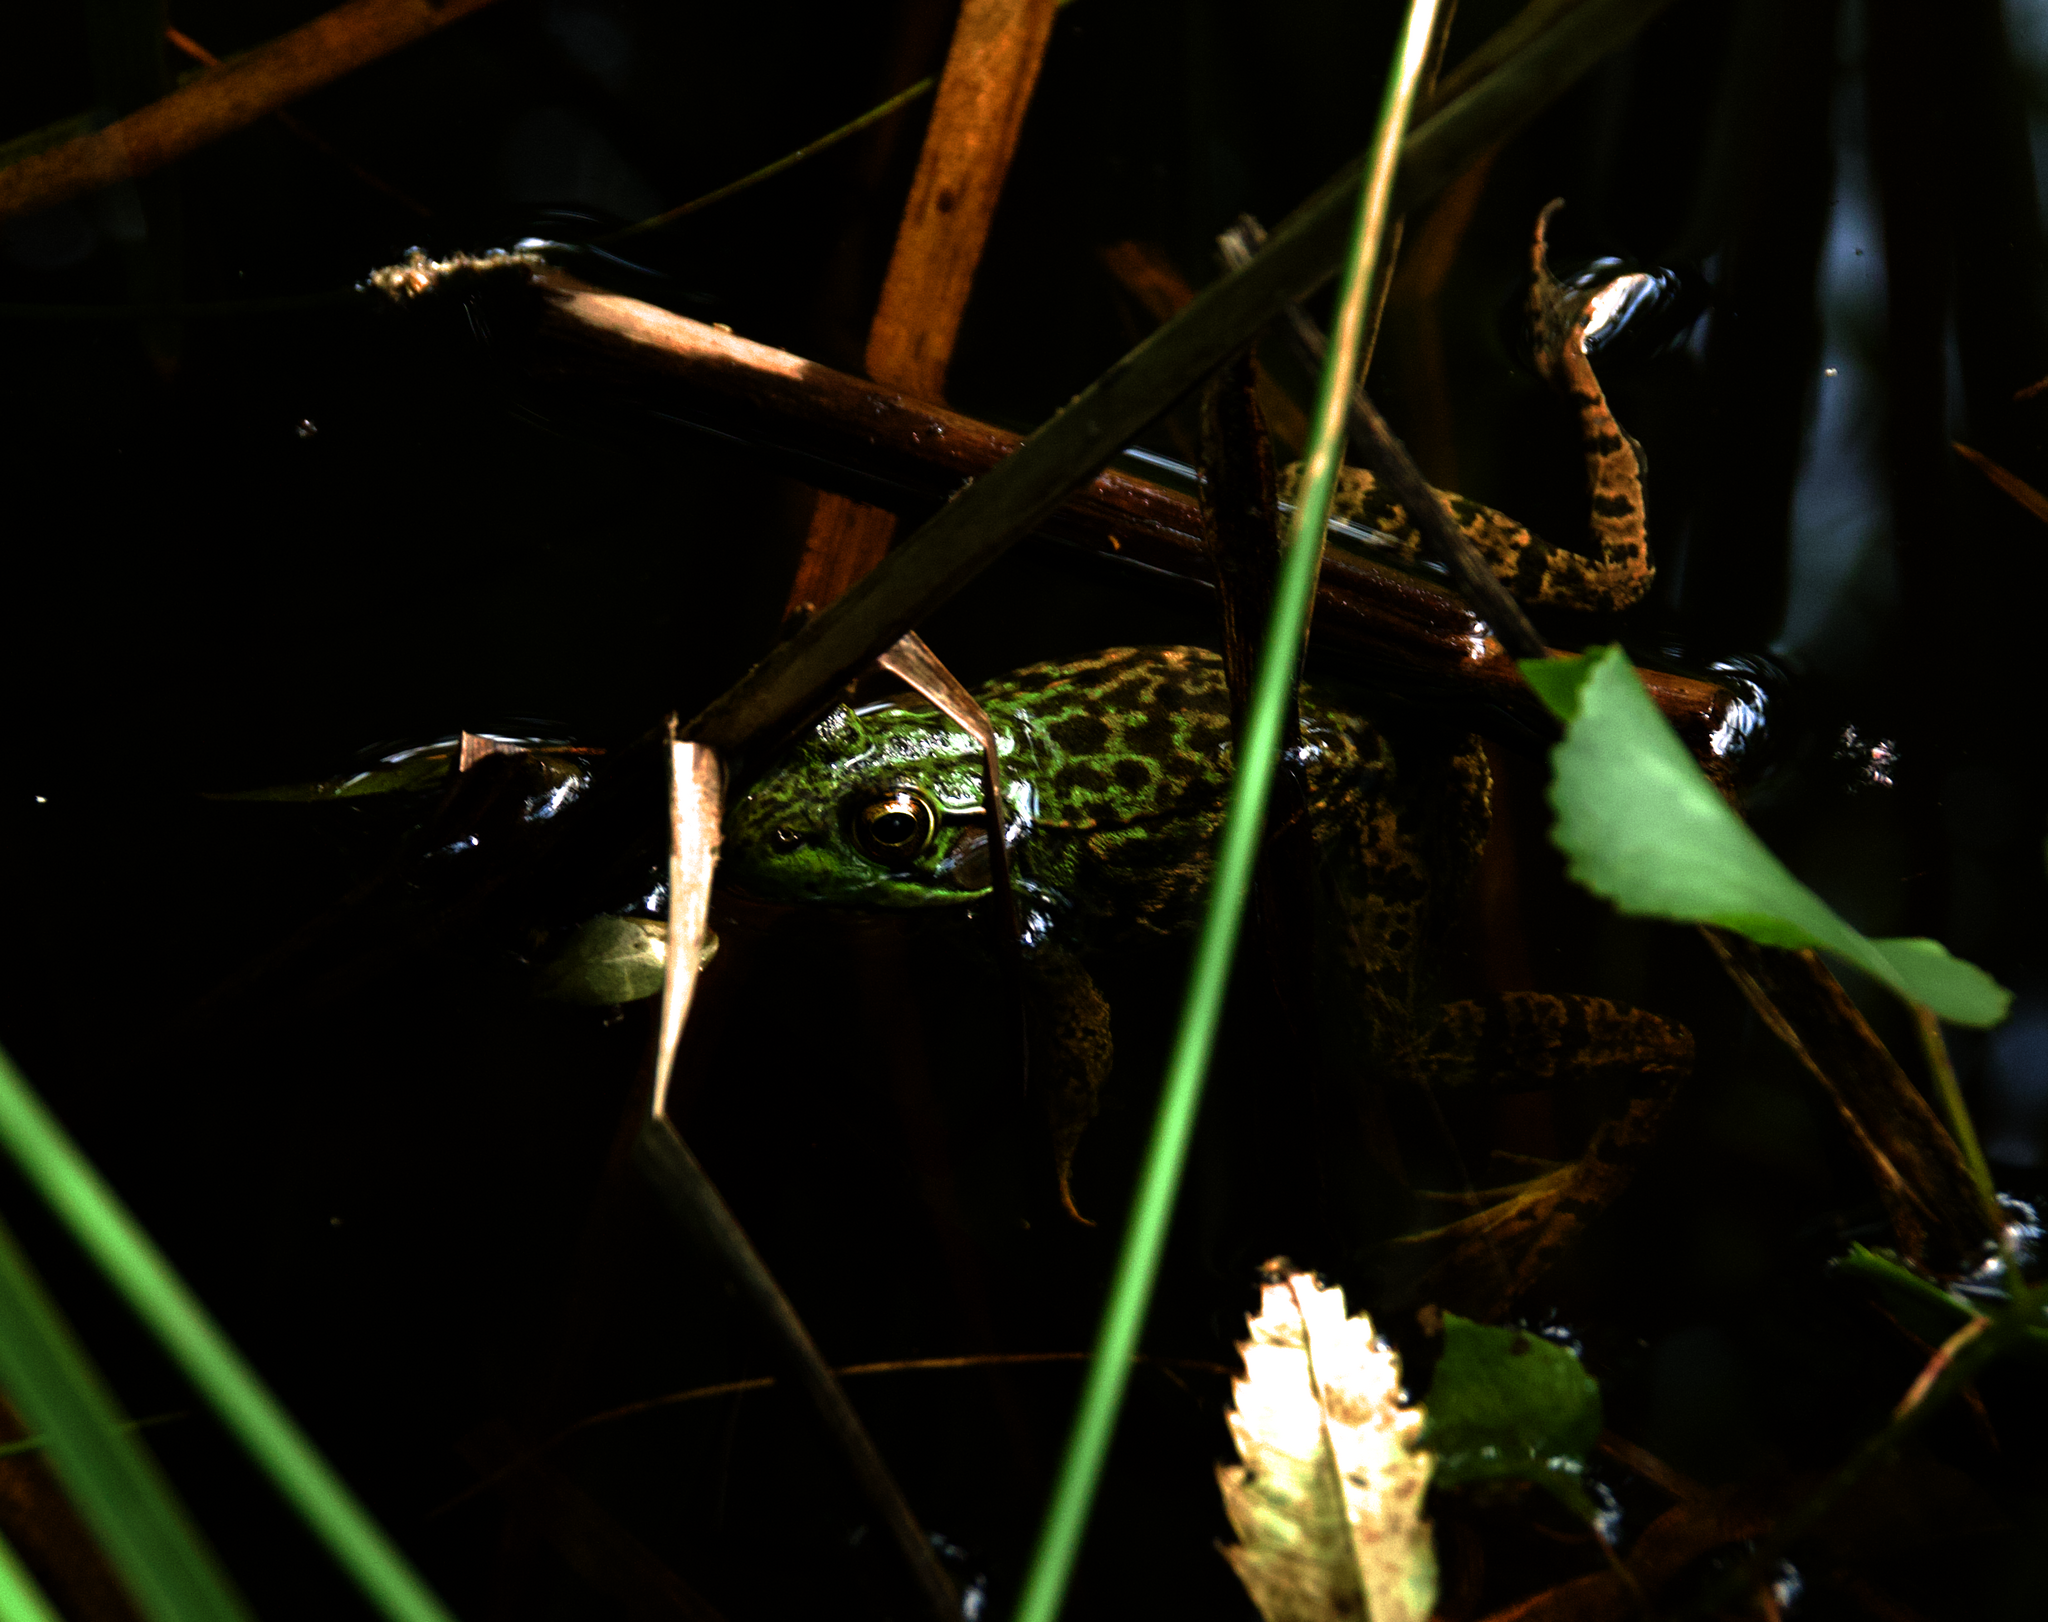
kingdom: Animalia
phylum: Chordata
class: Amphibia
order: Anura
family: Ranidae
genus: Lithobates
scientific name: Lithobates clamitans
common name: Green frog
